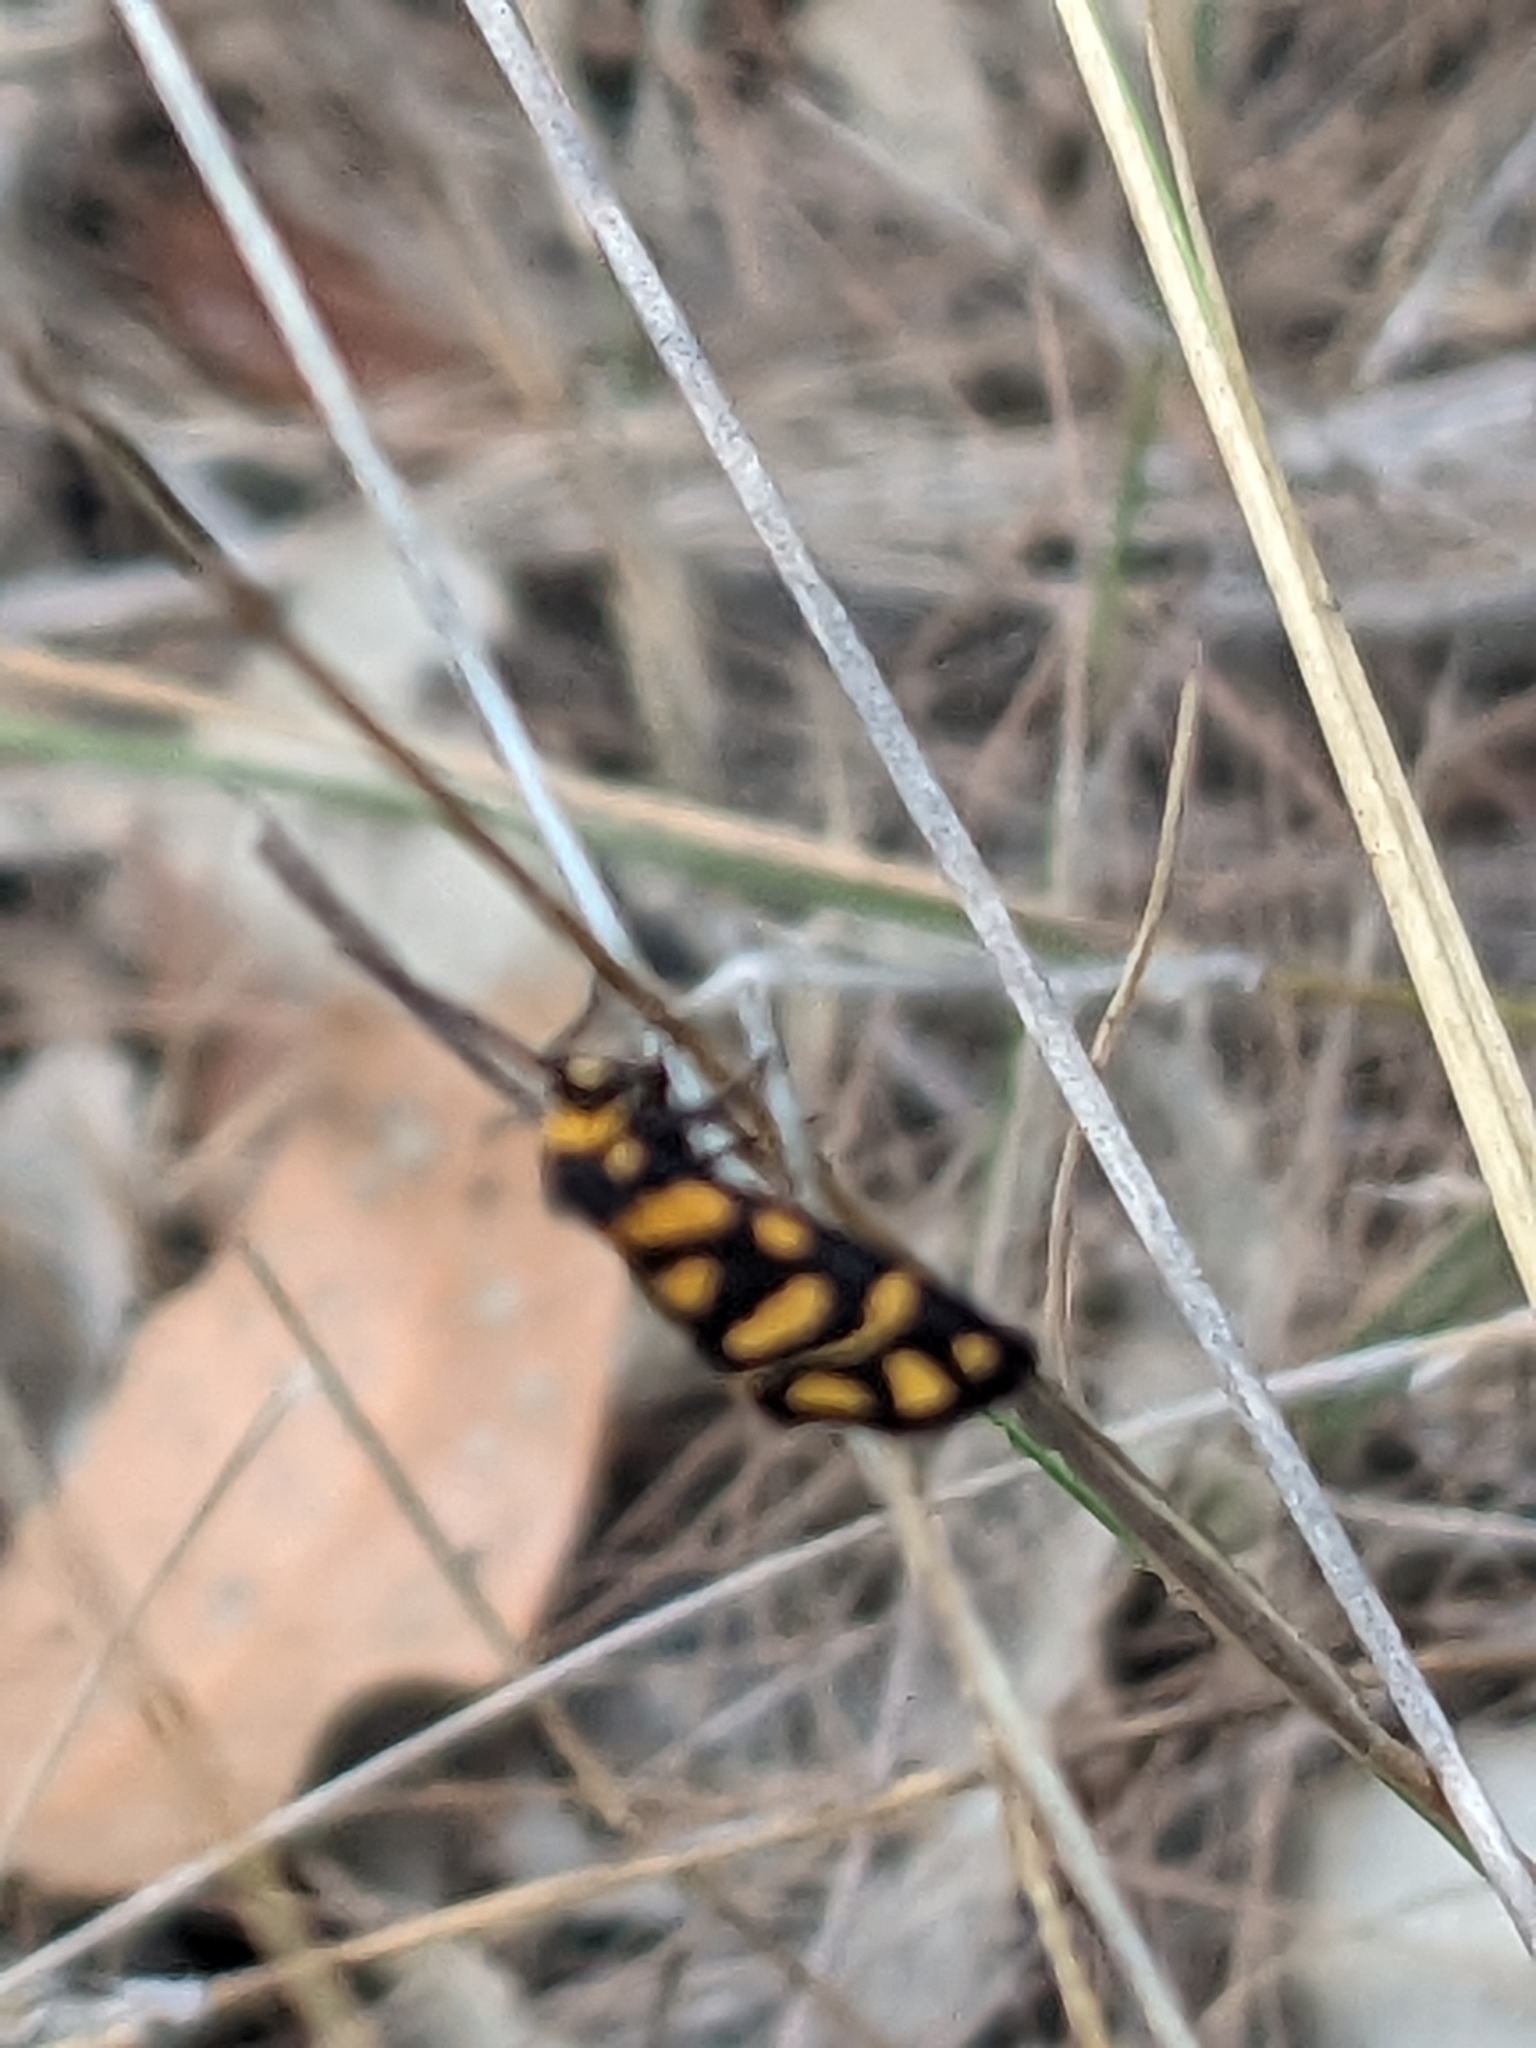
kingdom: Animalia
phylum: Arthropoda
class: Insecta
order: Lepidoptera
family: Erebidae
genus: Asura
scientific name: Asura lydia
